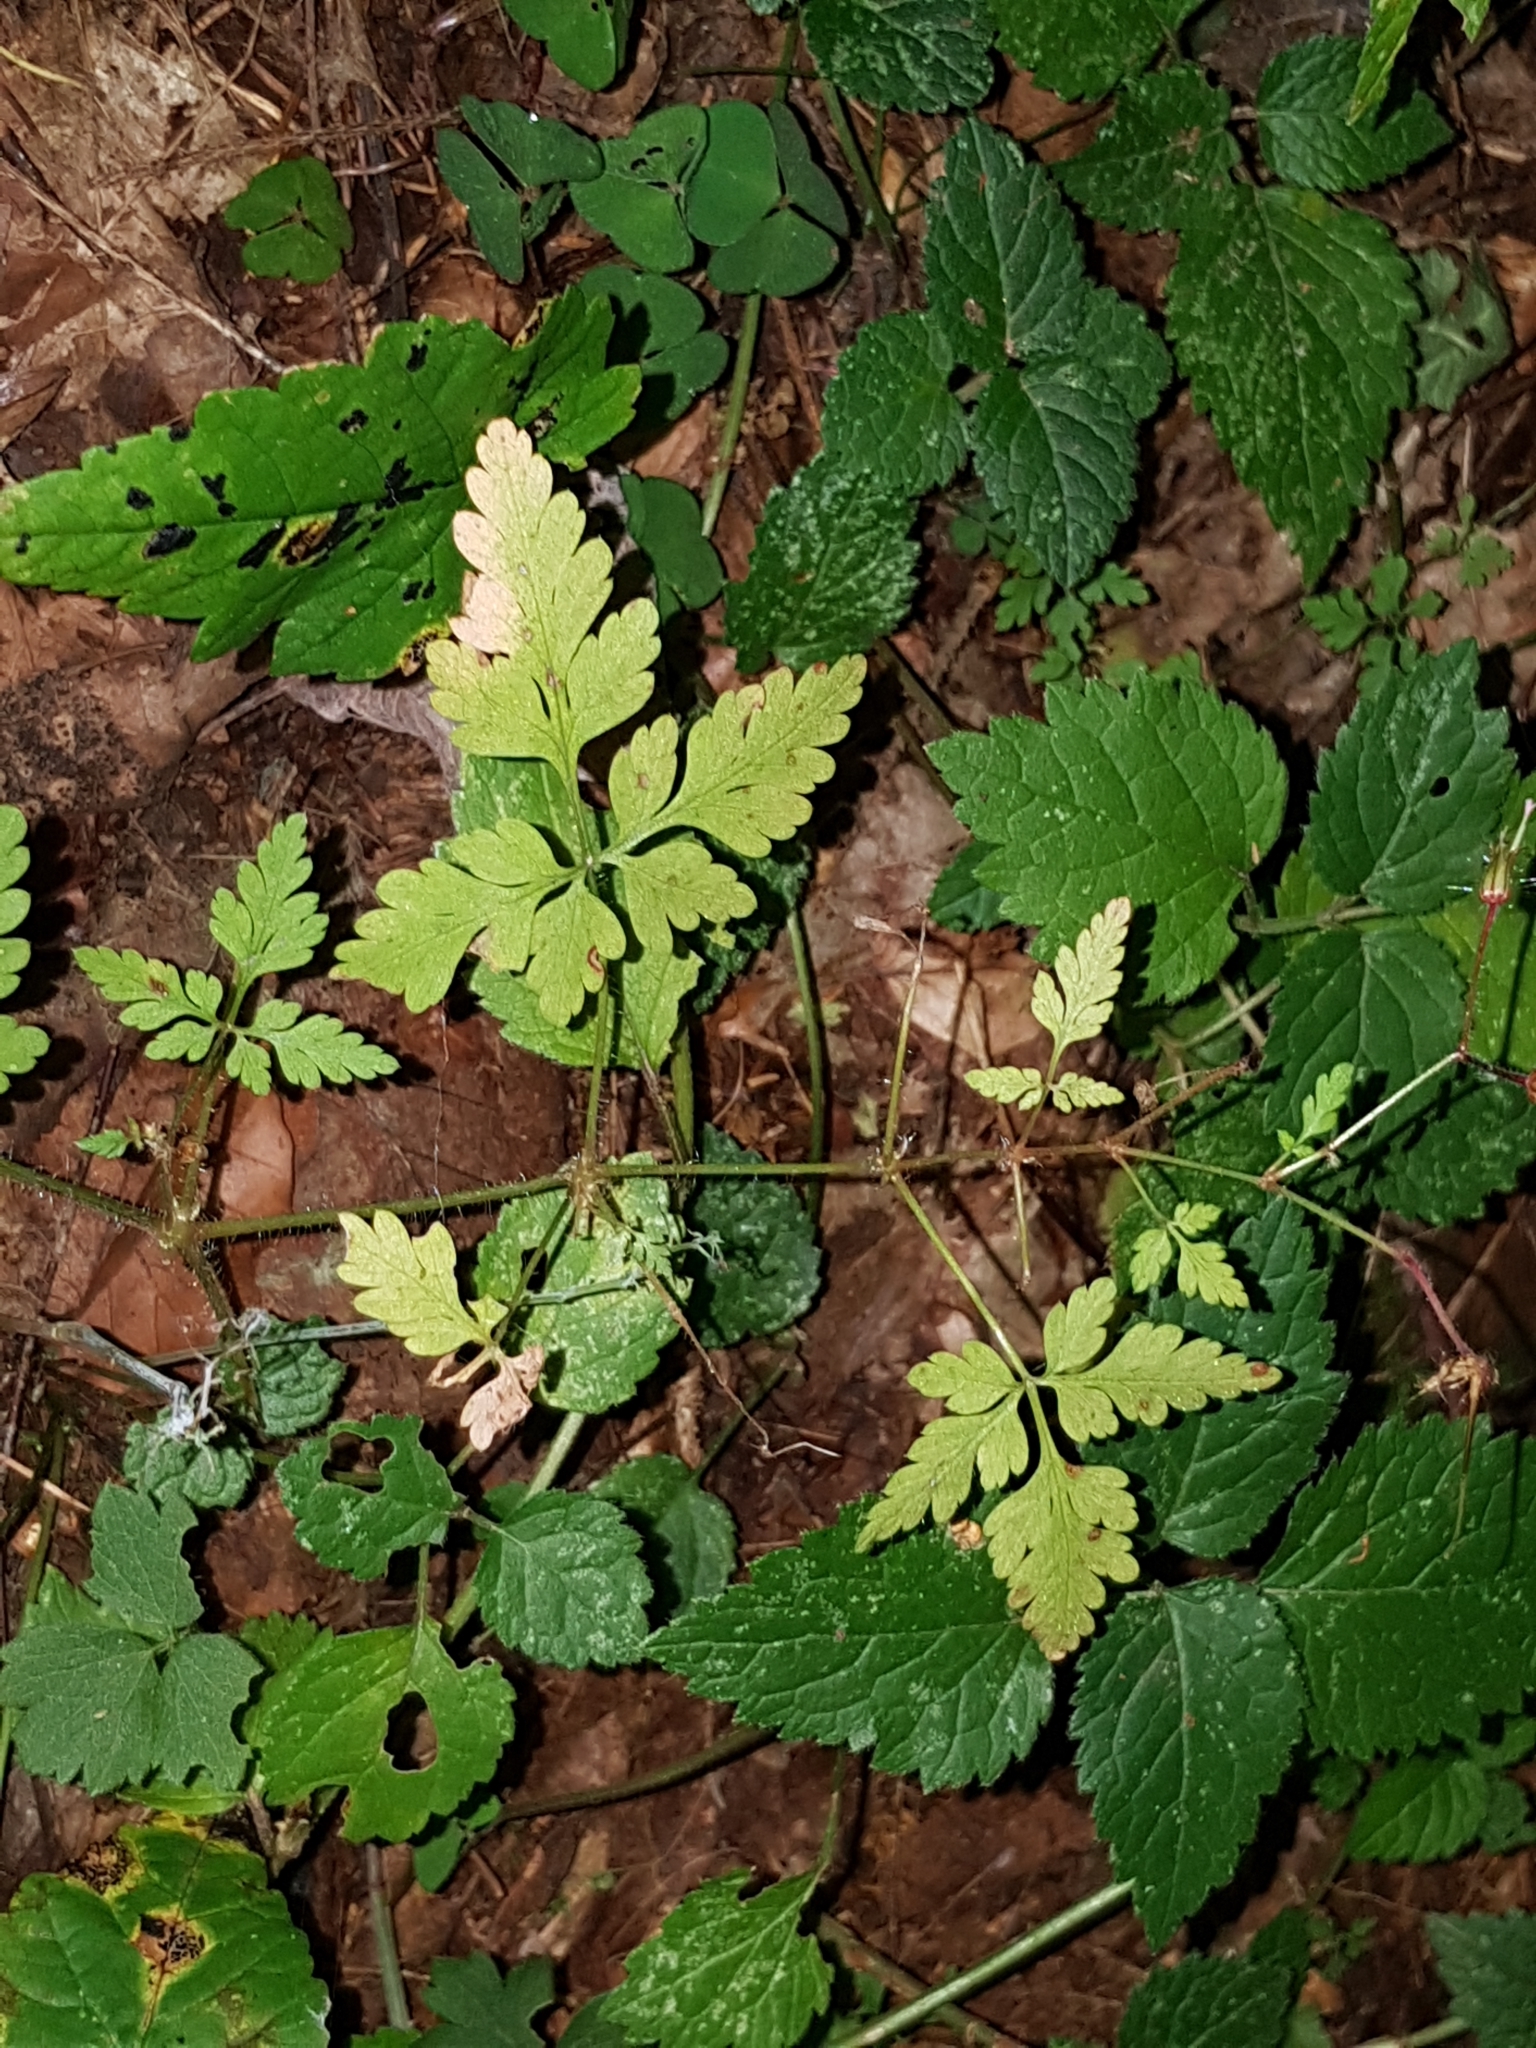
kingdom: Plantae
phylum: Tracheophyta
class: Magnoliopsida
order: Geraniales
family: Geraniaceae
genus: Geranium
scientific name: Geranium robertianum
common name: Herb-robert
